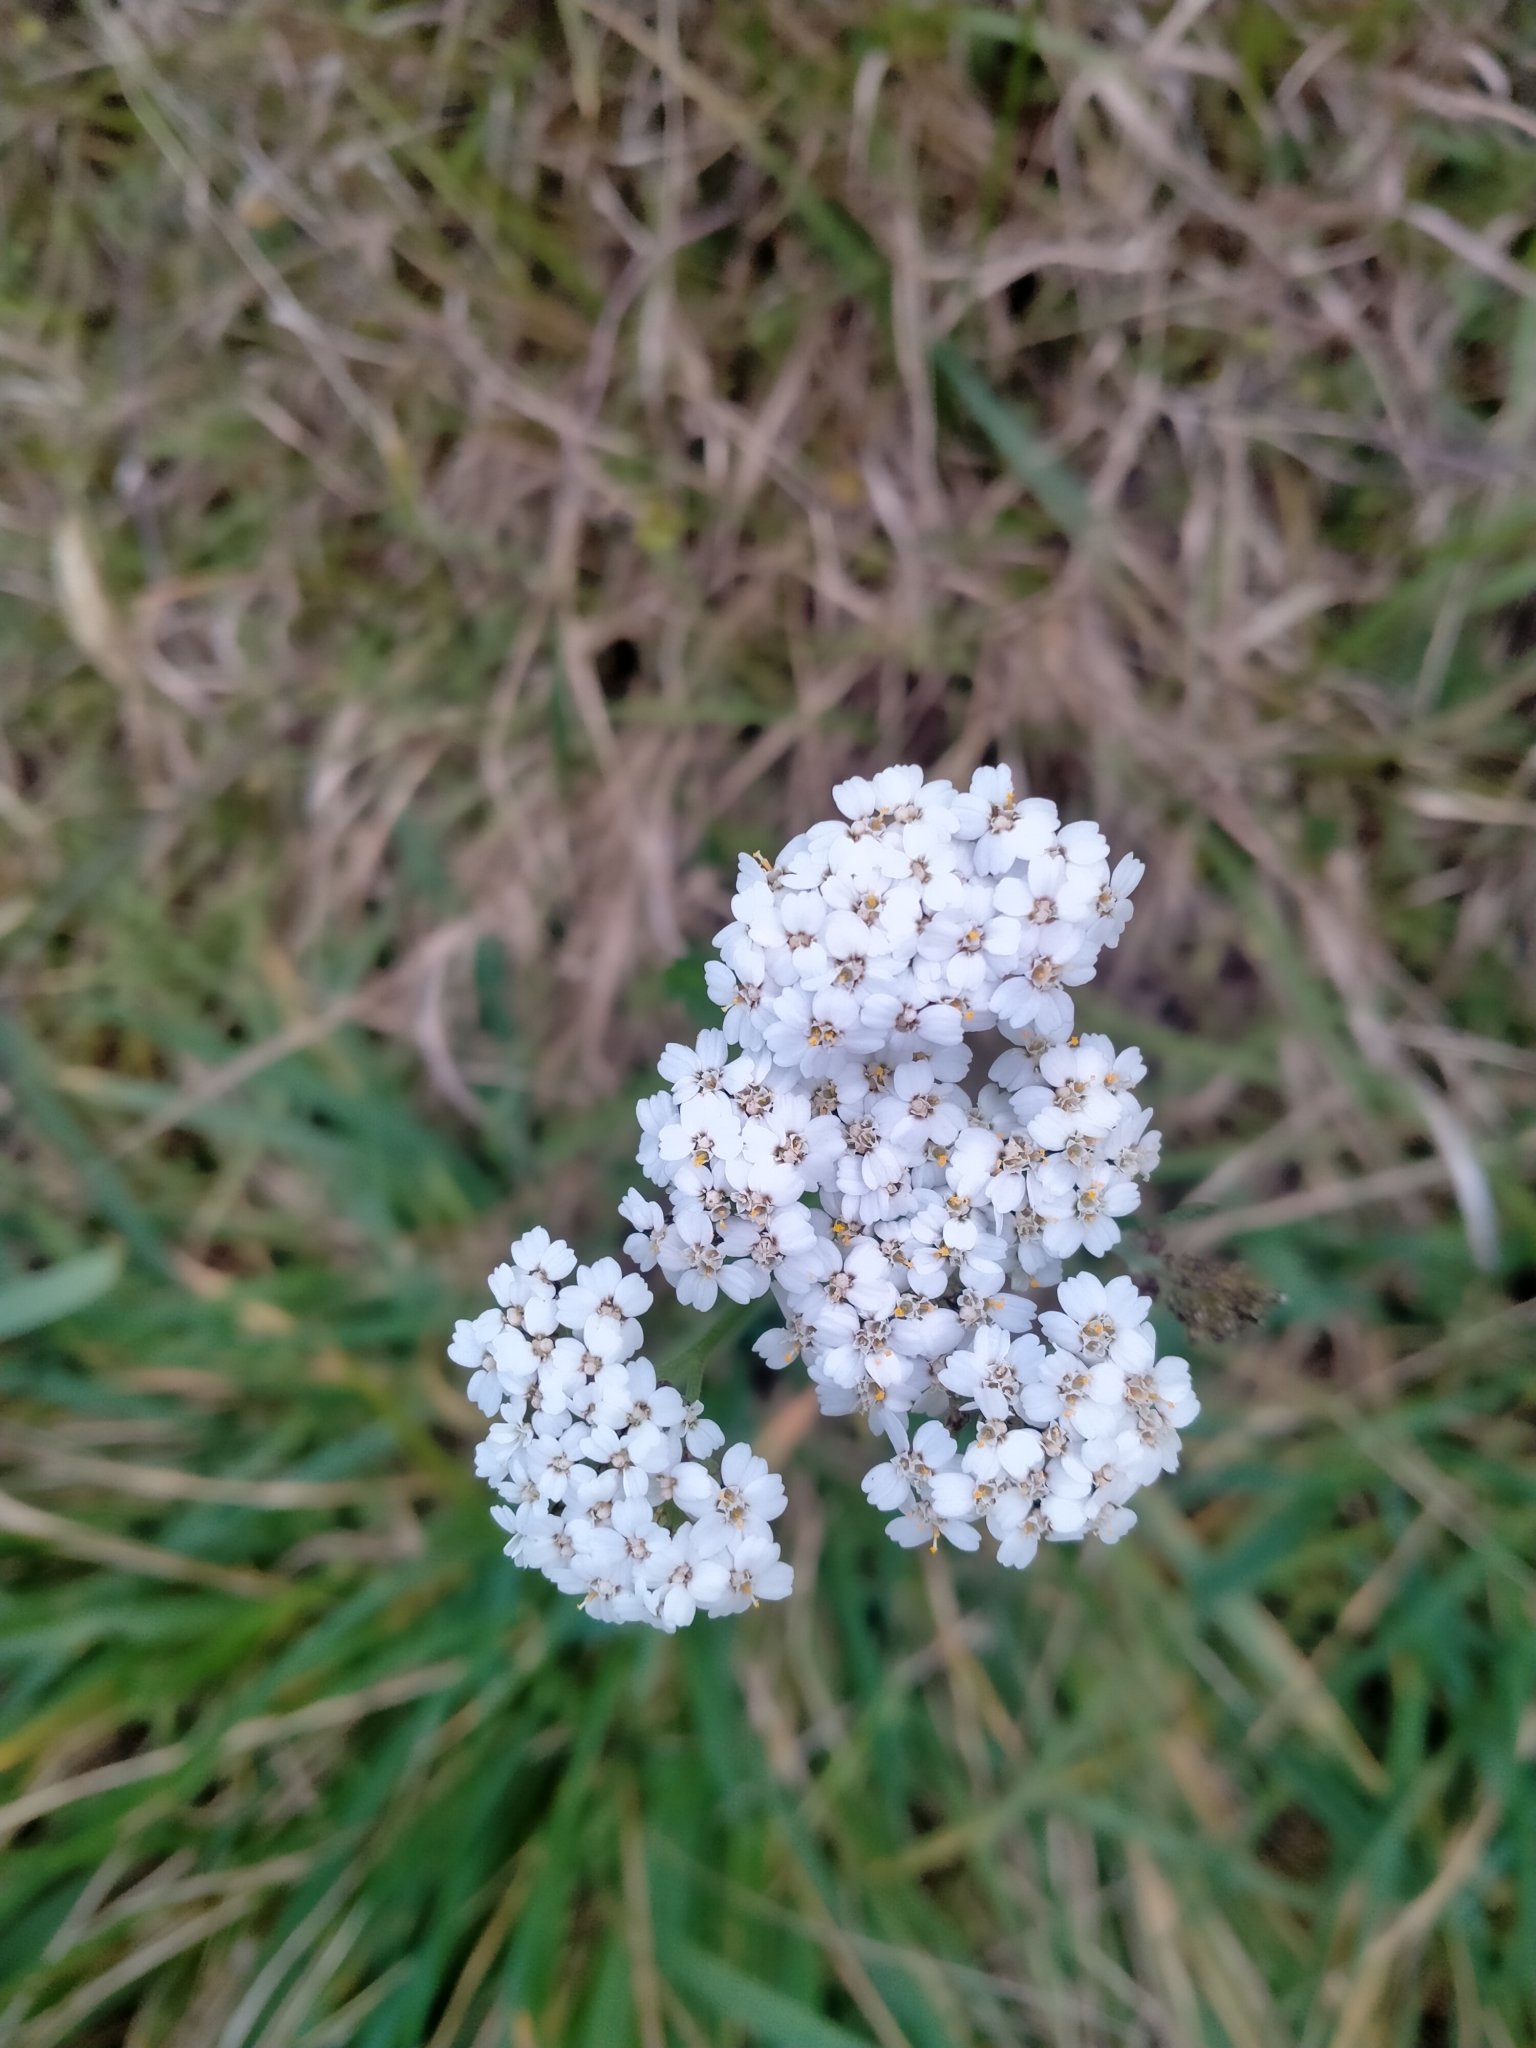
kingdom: Plantae
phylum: Tracheophyta
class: Magnoliopsida
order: Asterales
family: Asteraceae
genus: Achillea
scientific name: Achillea millefolium
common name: Yarrow
